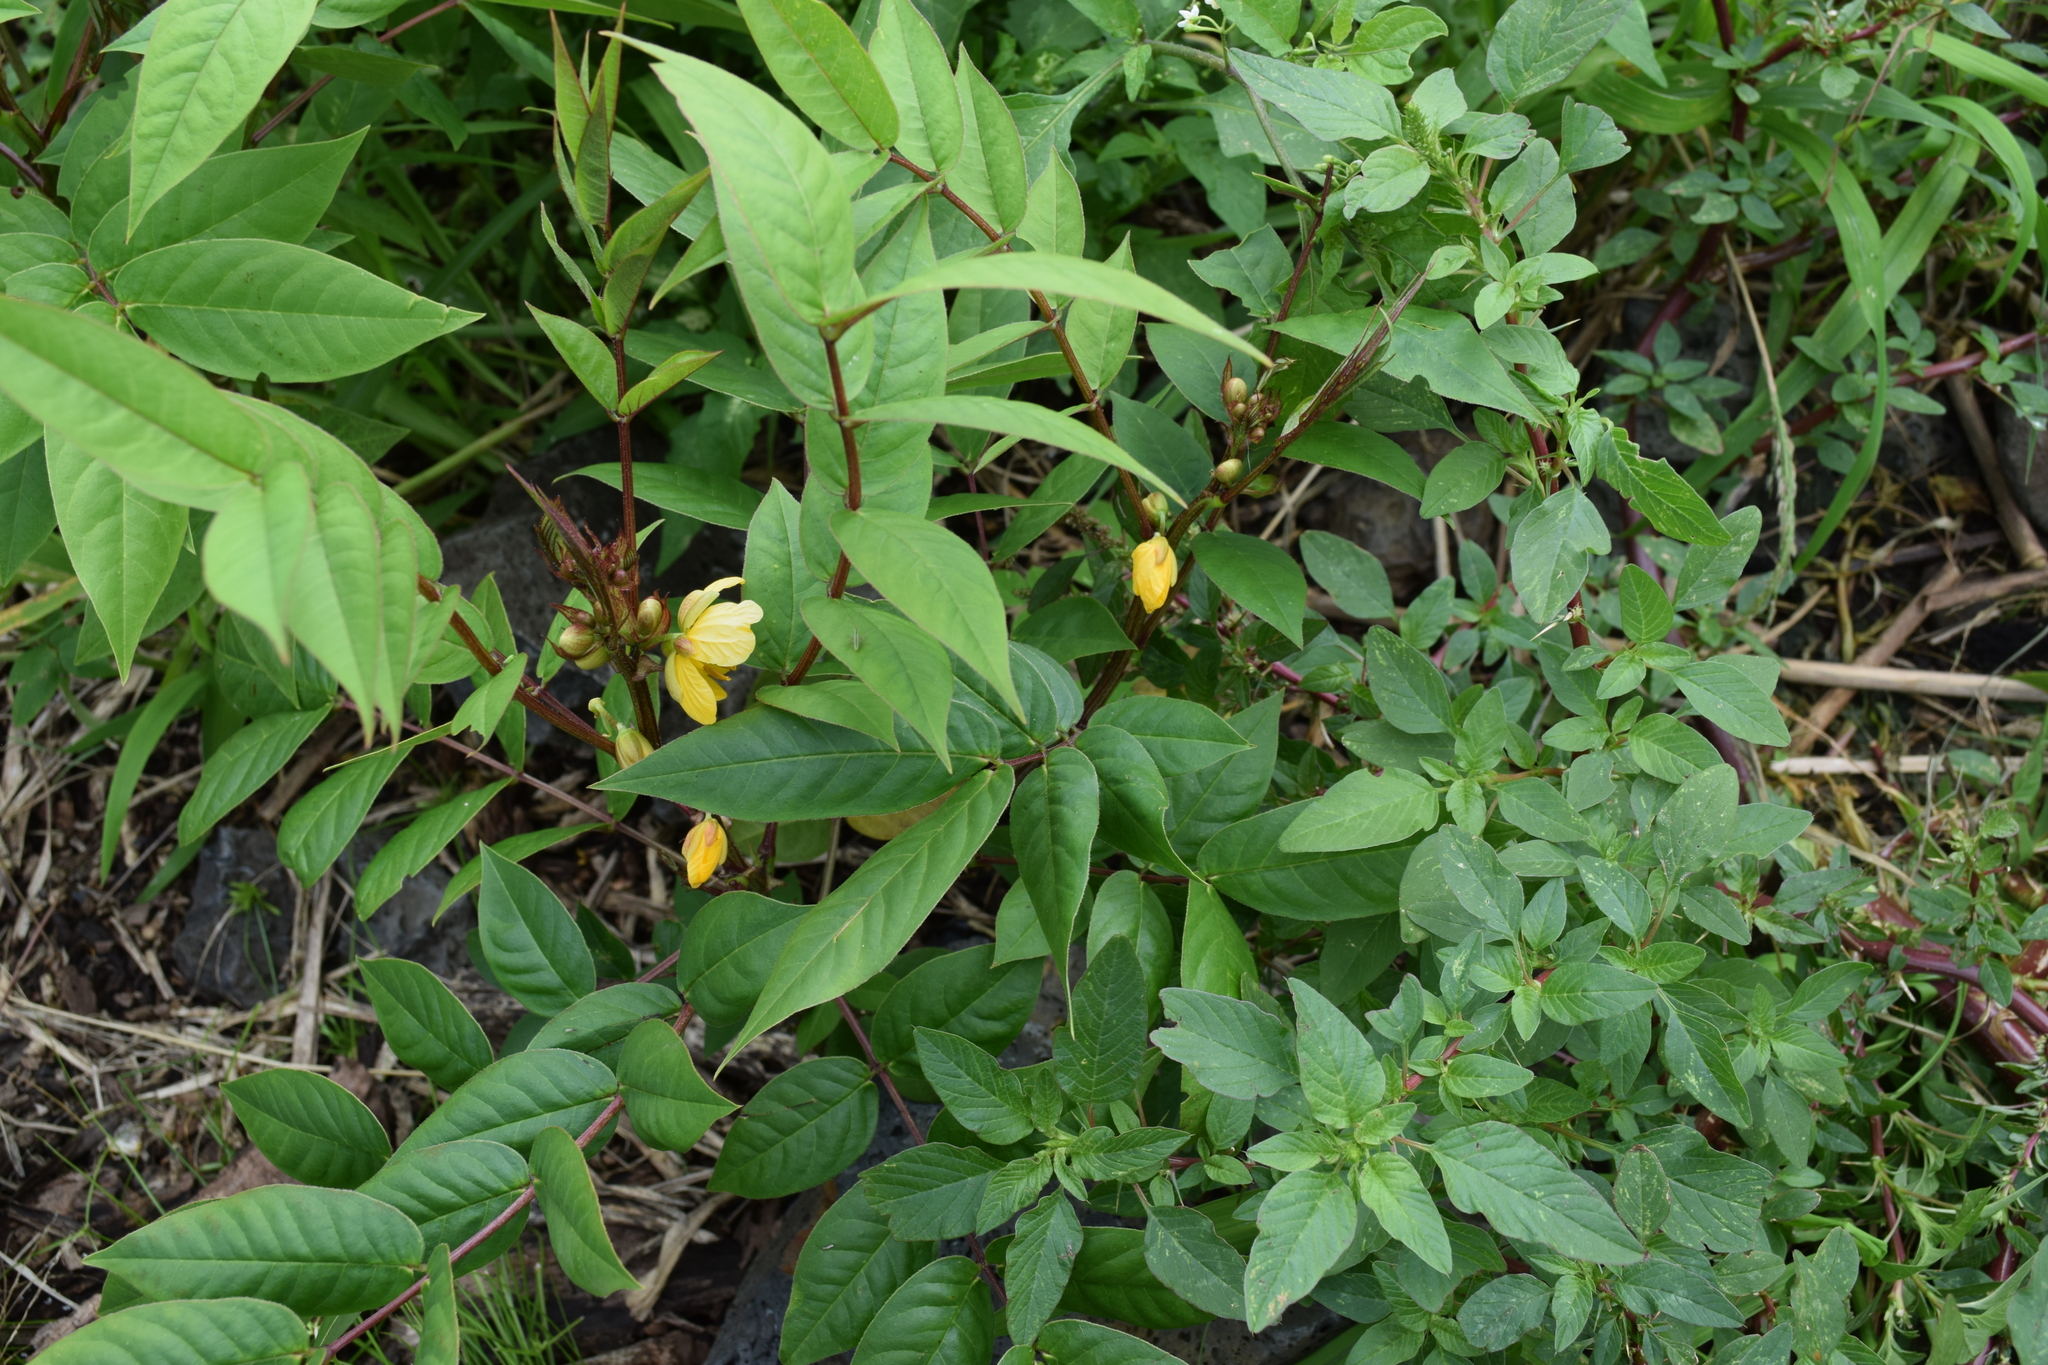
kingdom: Plantae
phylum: Tracheophyta
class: Magnoliopsida
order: Fabales
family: Fabaceae
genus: Senna
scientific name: Senna occidentalis
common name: Septicweed
